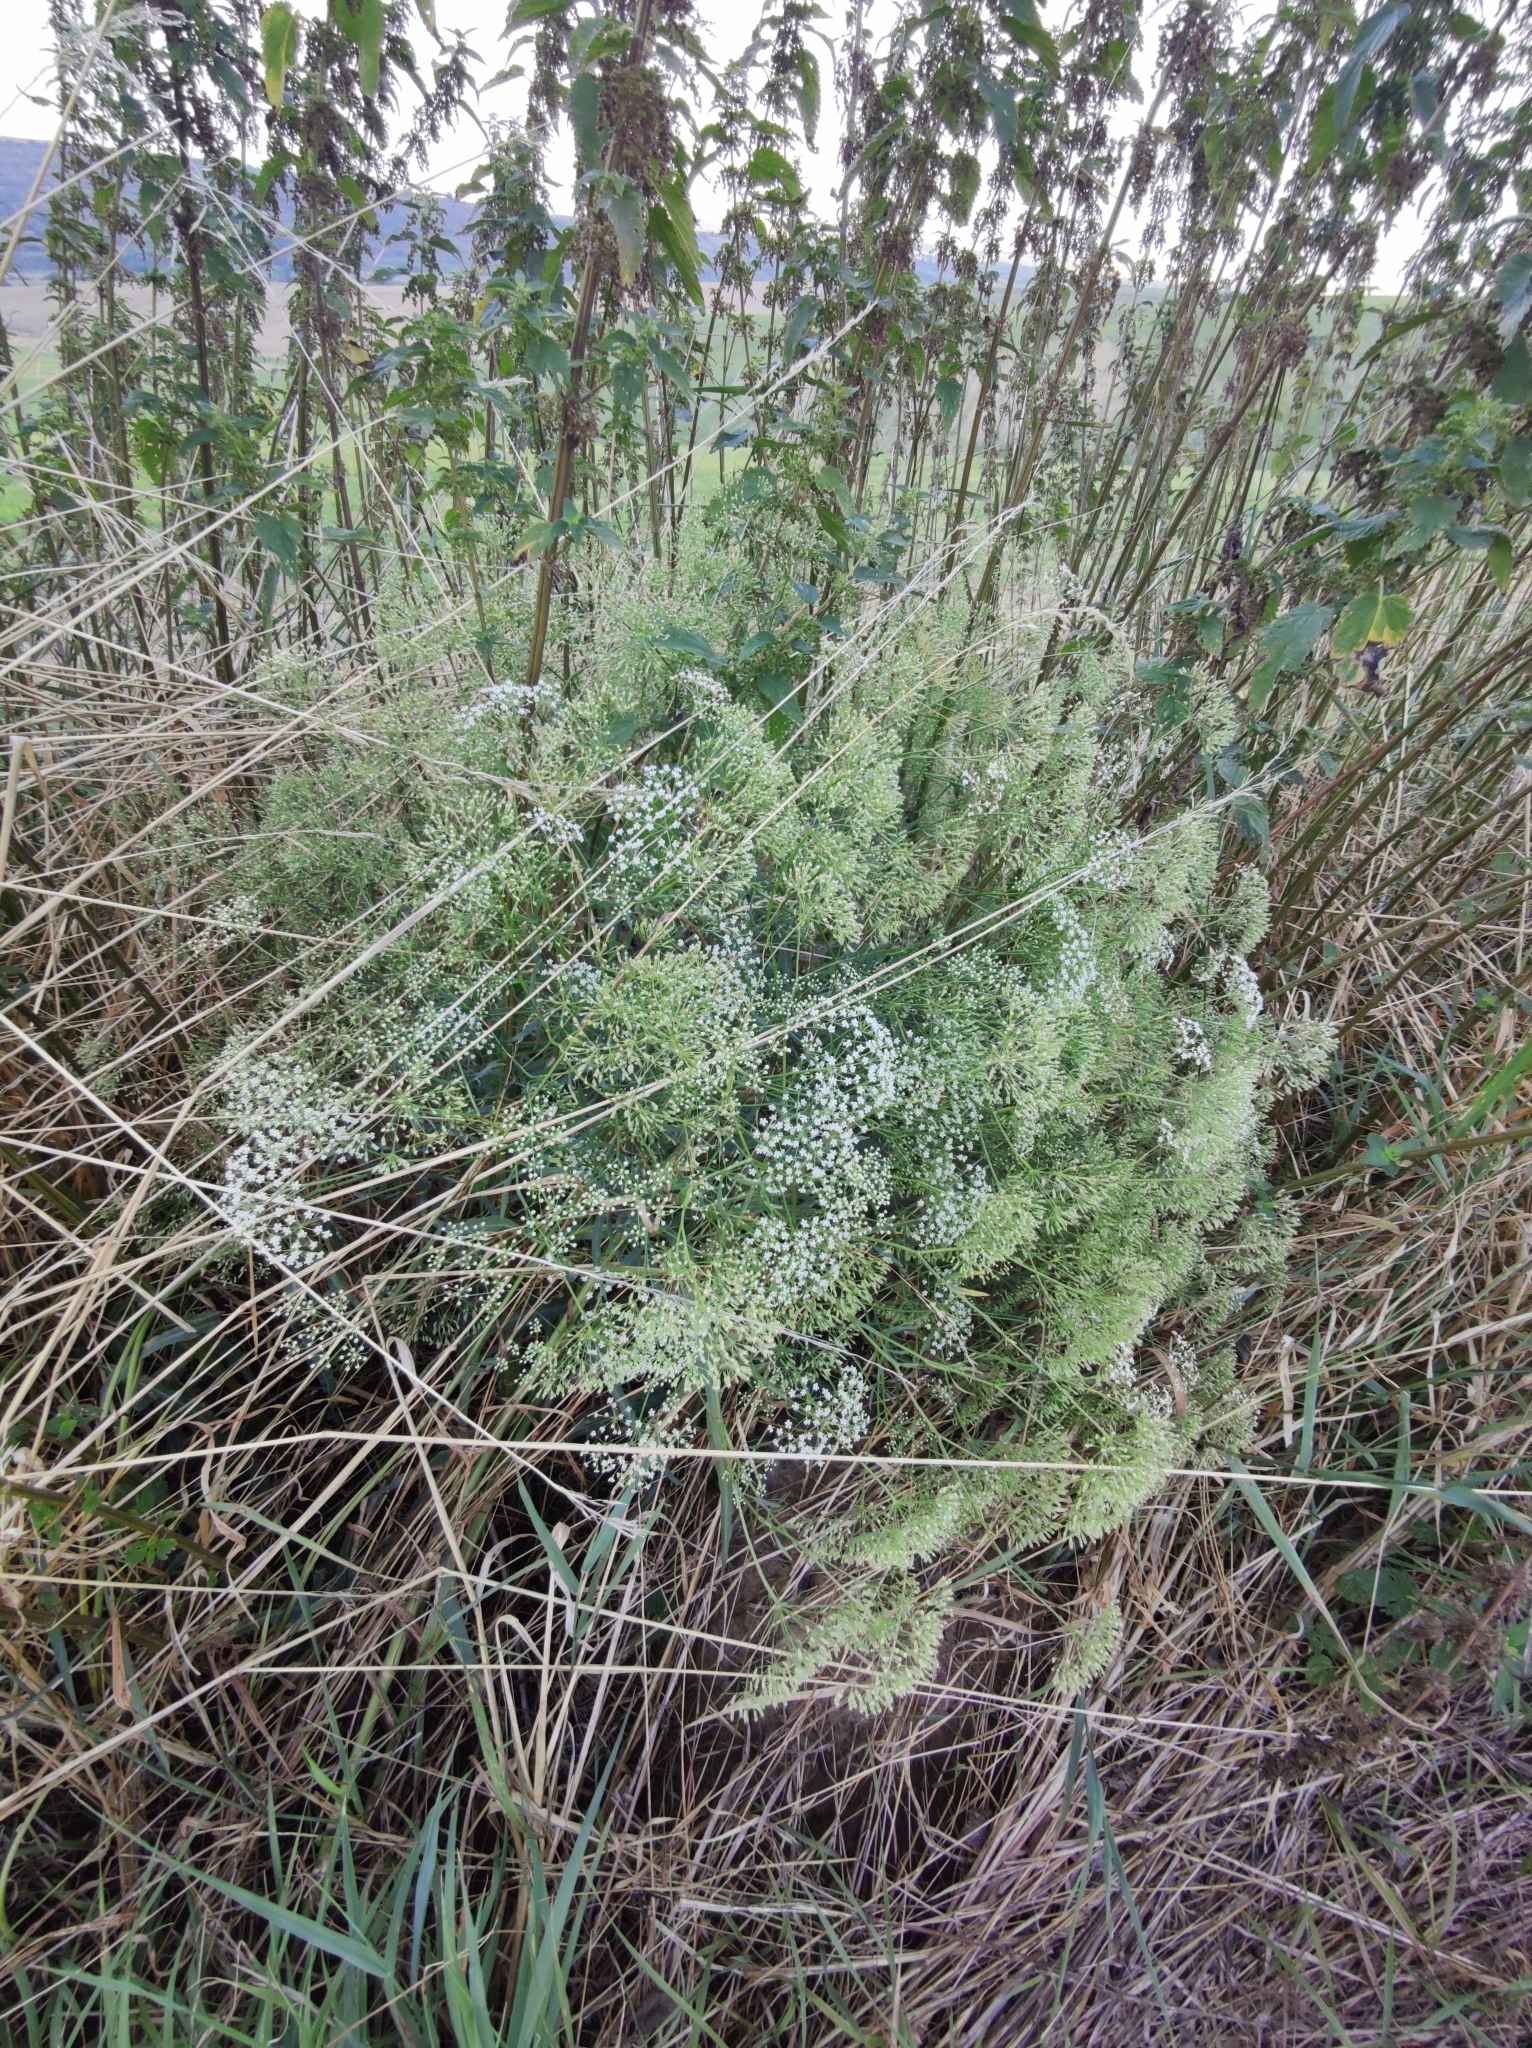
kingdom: Plantae
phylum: Tracheophyta
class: Magnoliopsida
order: Apiales
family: Apiaceae
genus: Falcaria
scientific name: Falcaria vulgaris
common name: Longleaf
